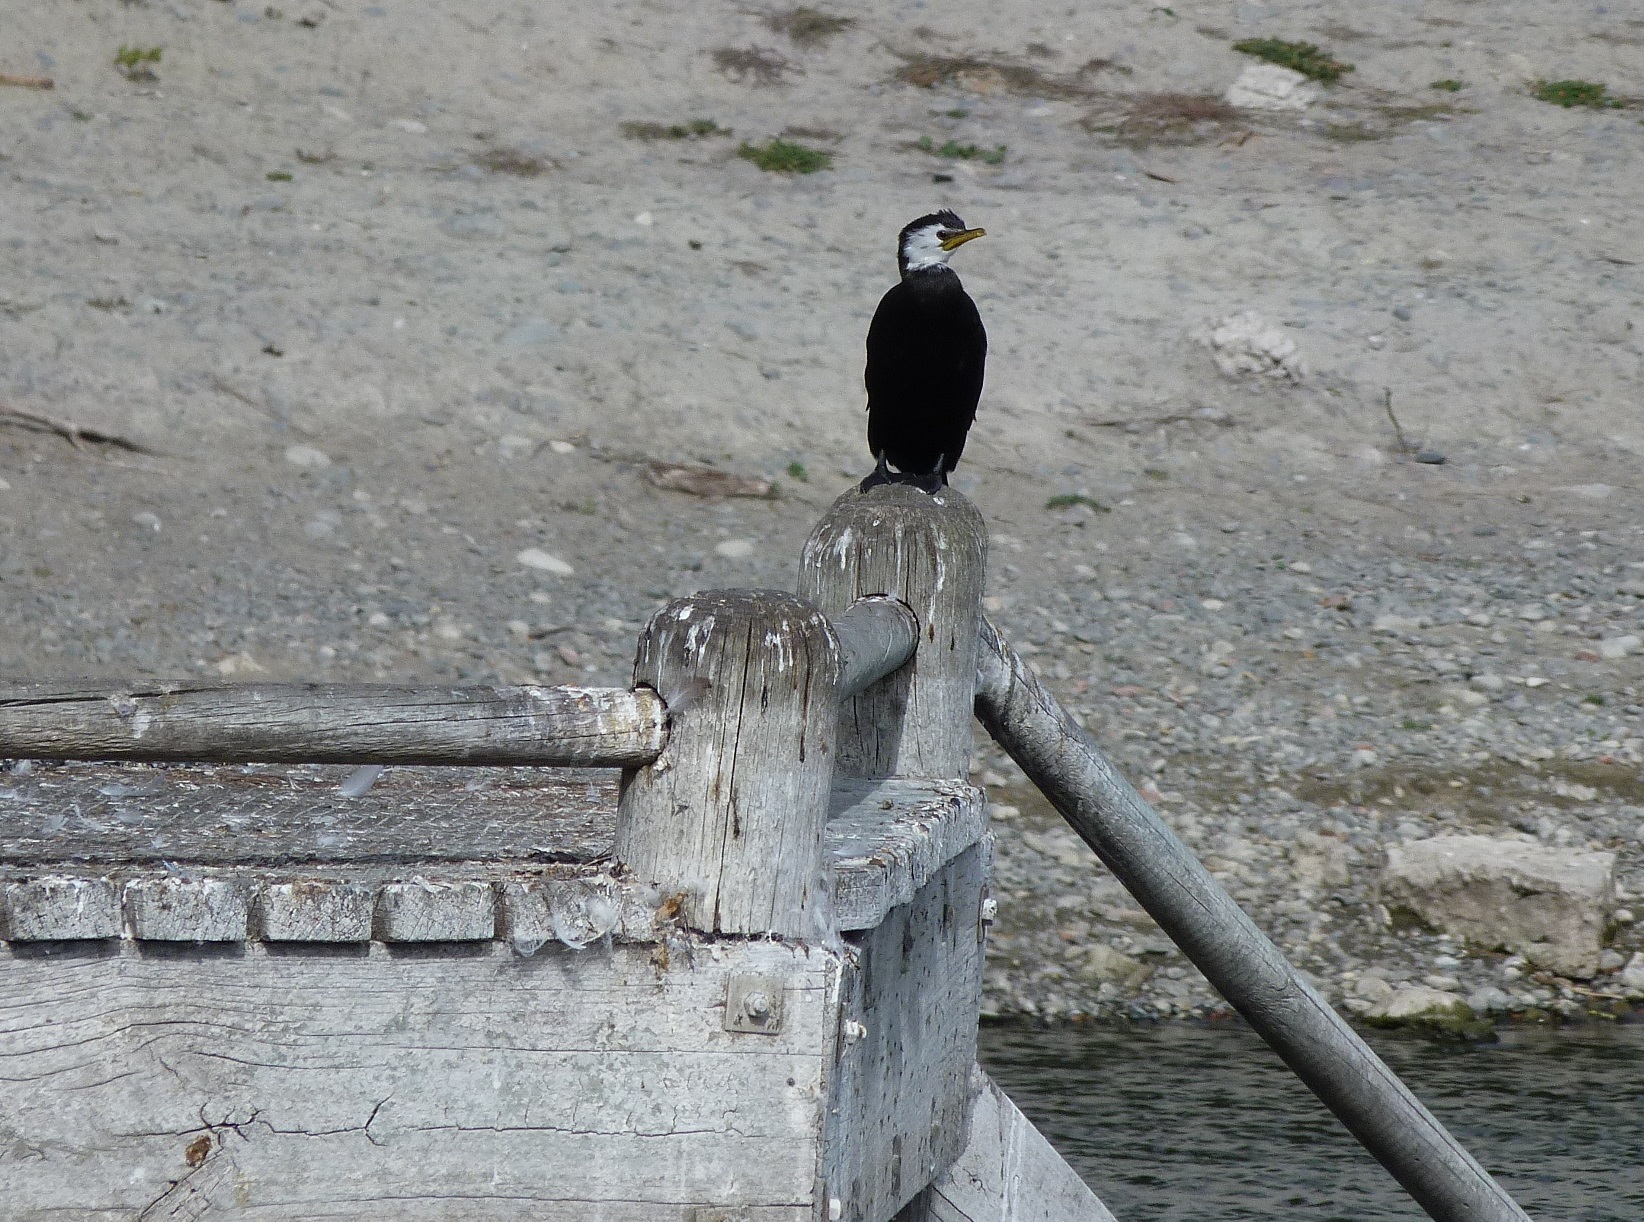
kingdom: Animalia
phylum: Chordata
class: Aves
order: Suliformes
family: Phalacrocoracidae
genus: Microcarbo
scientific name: Microcarbo melanoleucos
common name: Little pied cormorant
